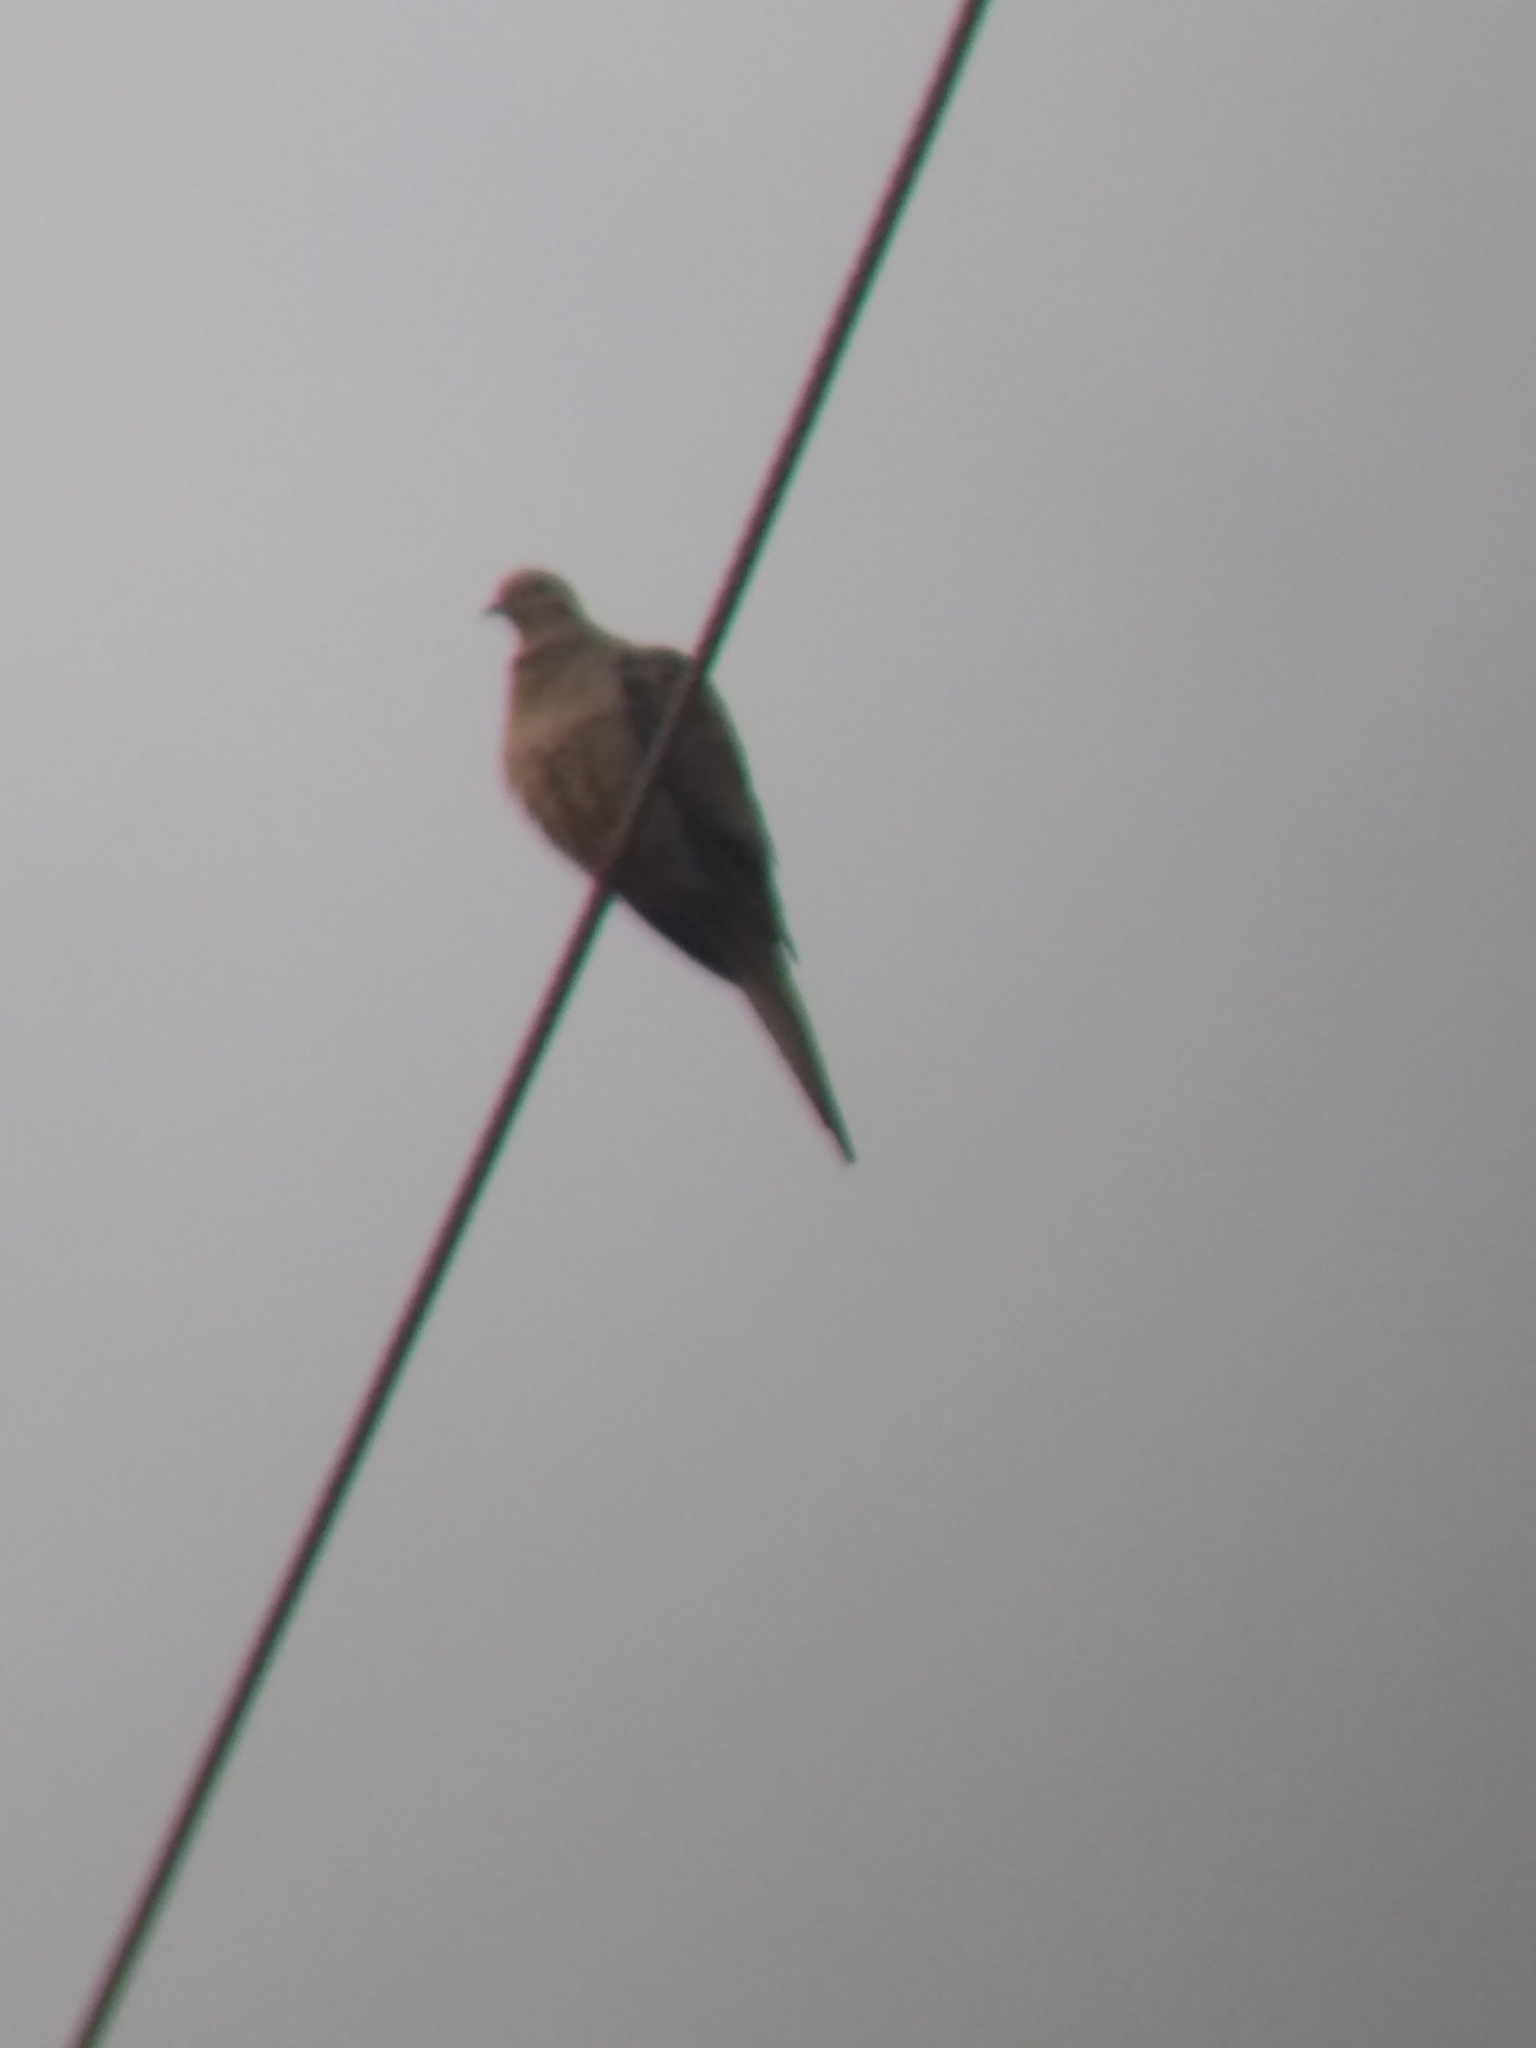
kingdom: Animalia
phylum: Chordata
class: Aves
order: Columbiformes
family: Columbidae
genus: Zenaida
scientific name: Zenaida macroura
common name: Mourning dove
